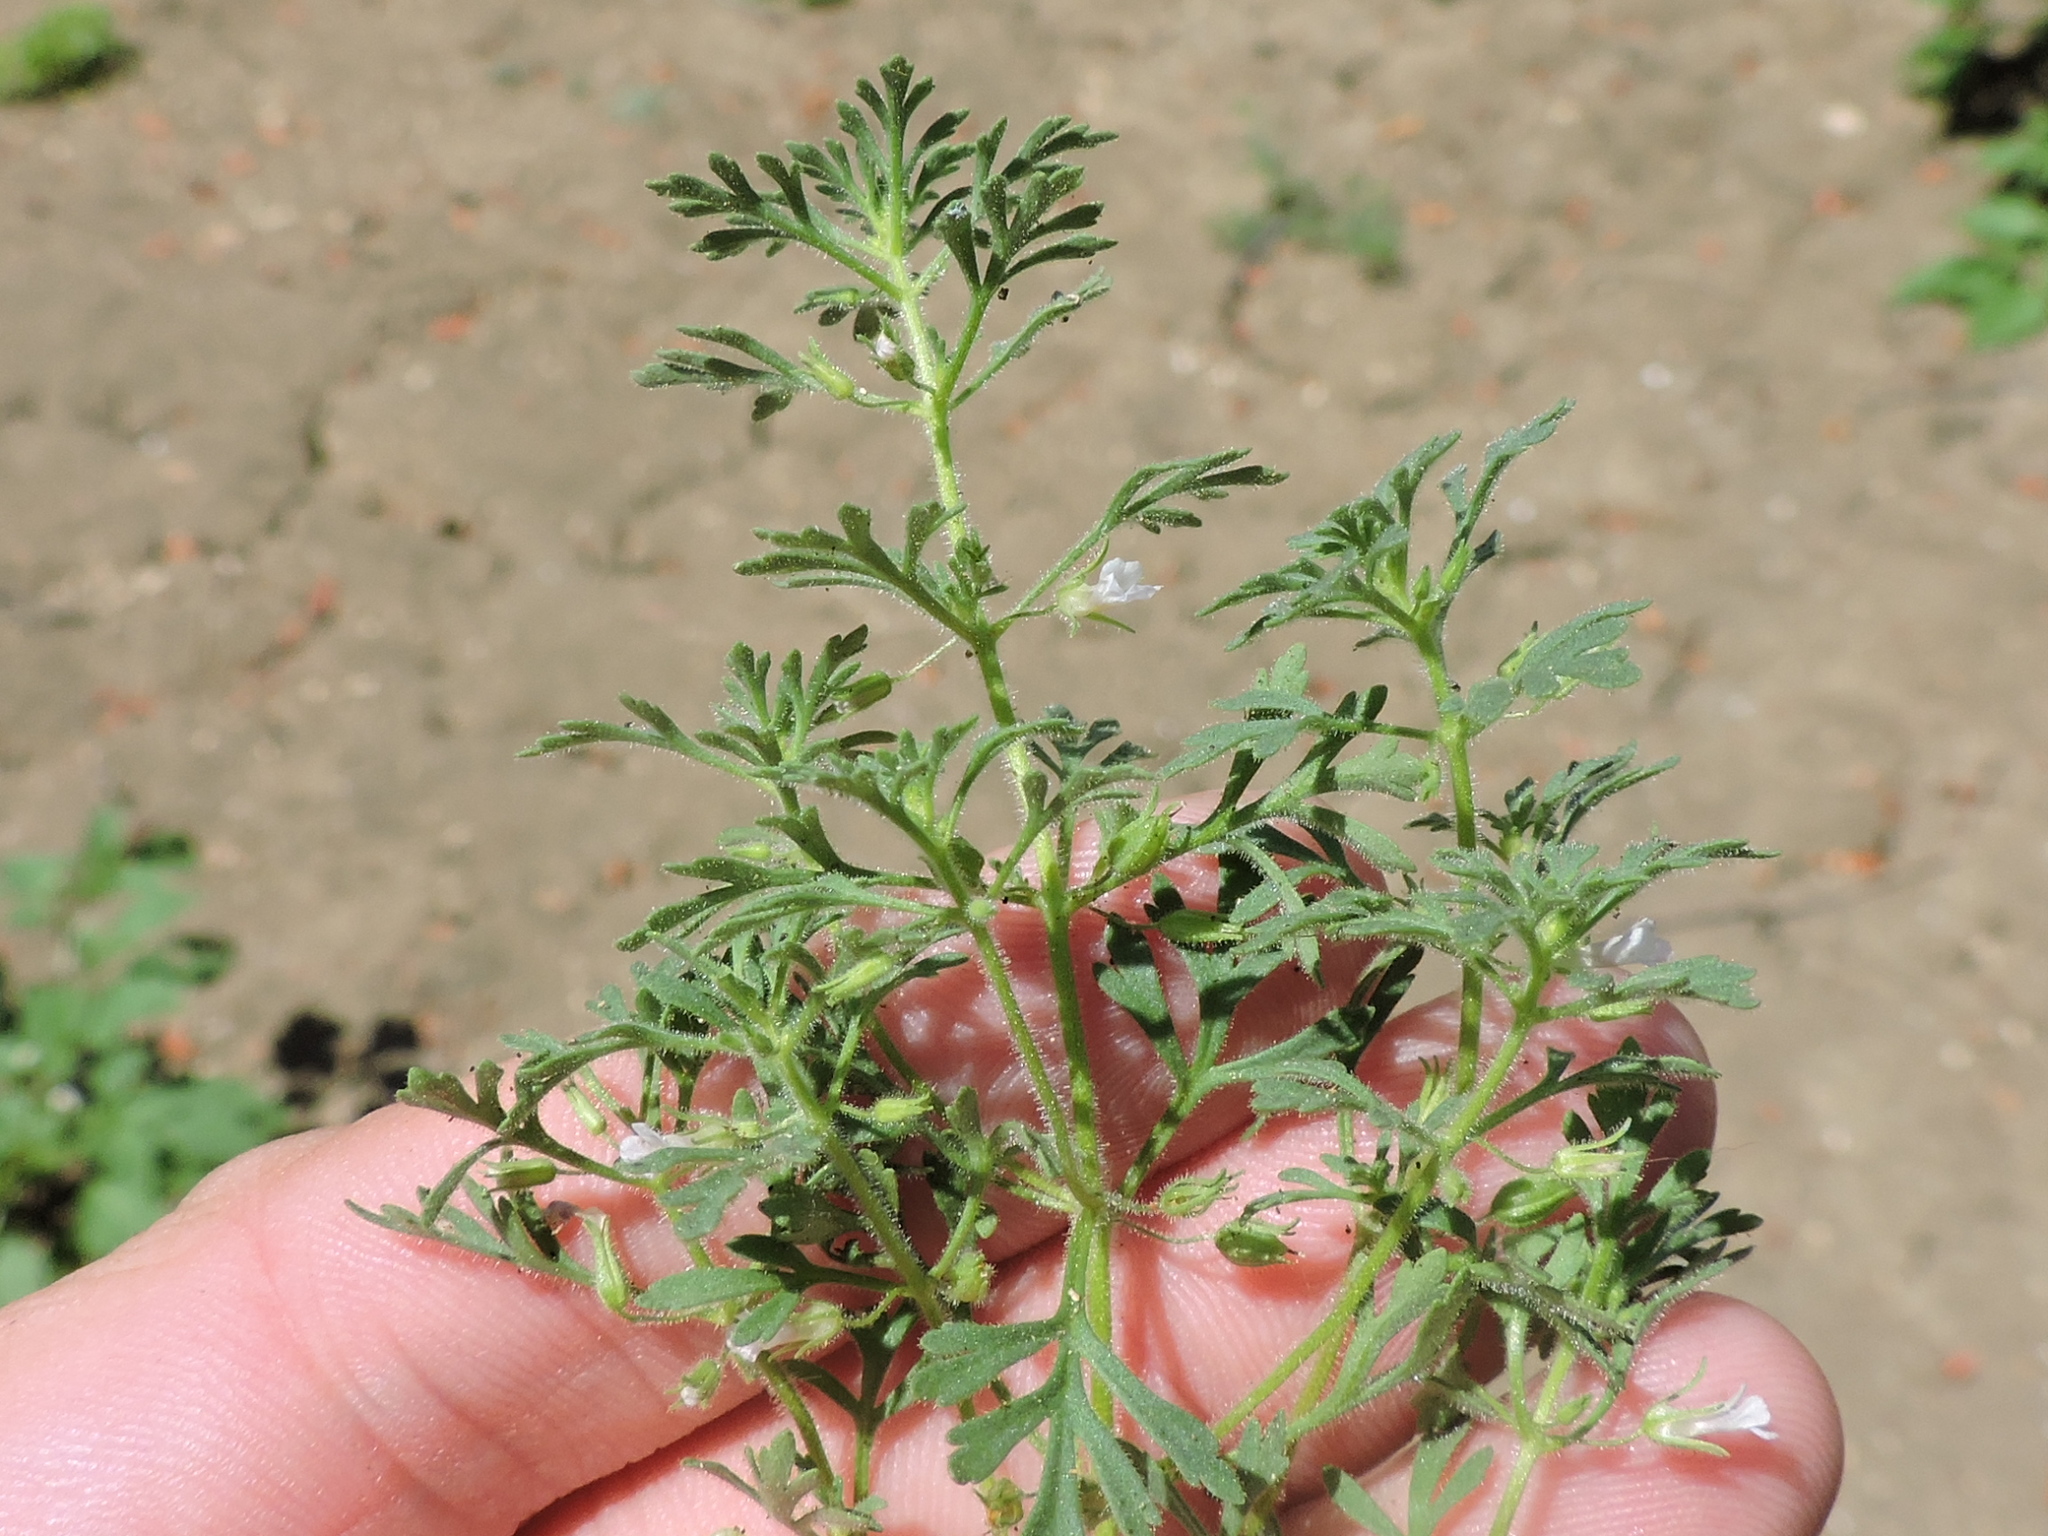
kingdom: Plantae
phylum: Tracheophyta
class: Magnoliopsida
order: Lamiales
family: Plantaginaceae
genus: Leucospora
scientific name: Leucospora multifida
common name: Narrow-leaf paleseed
